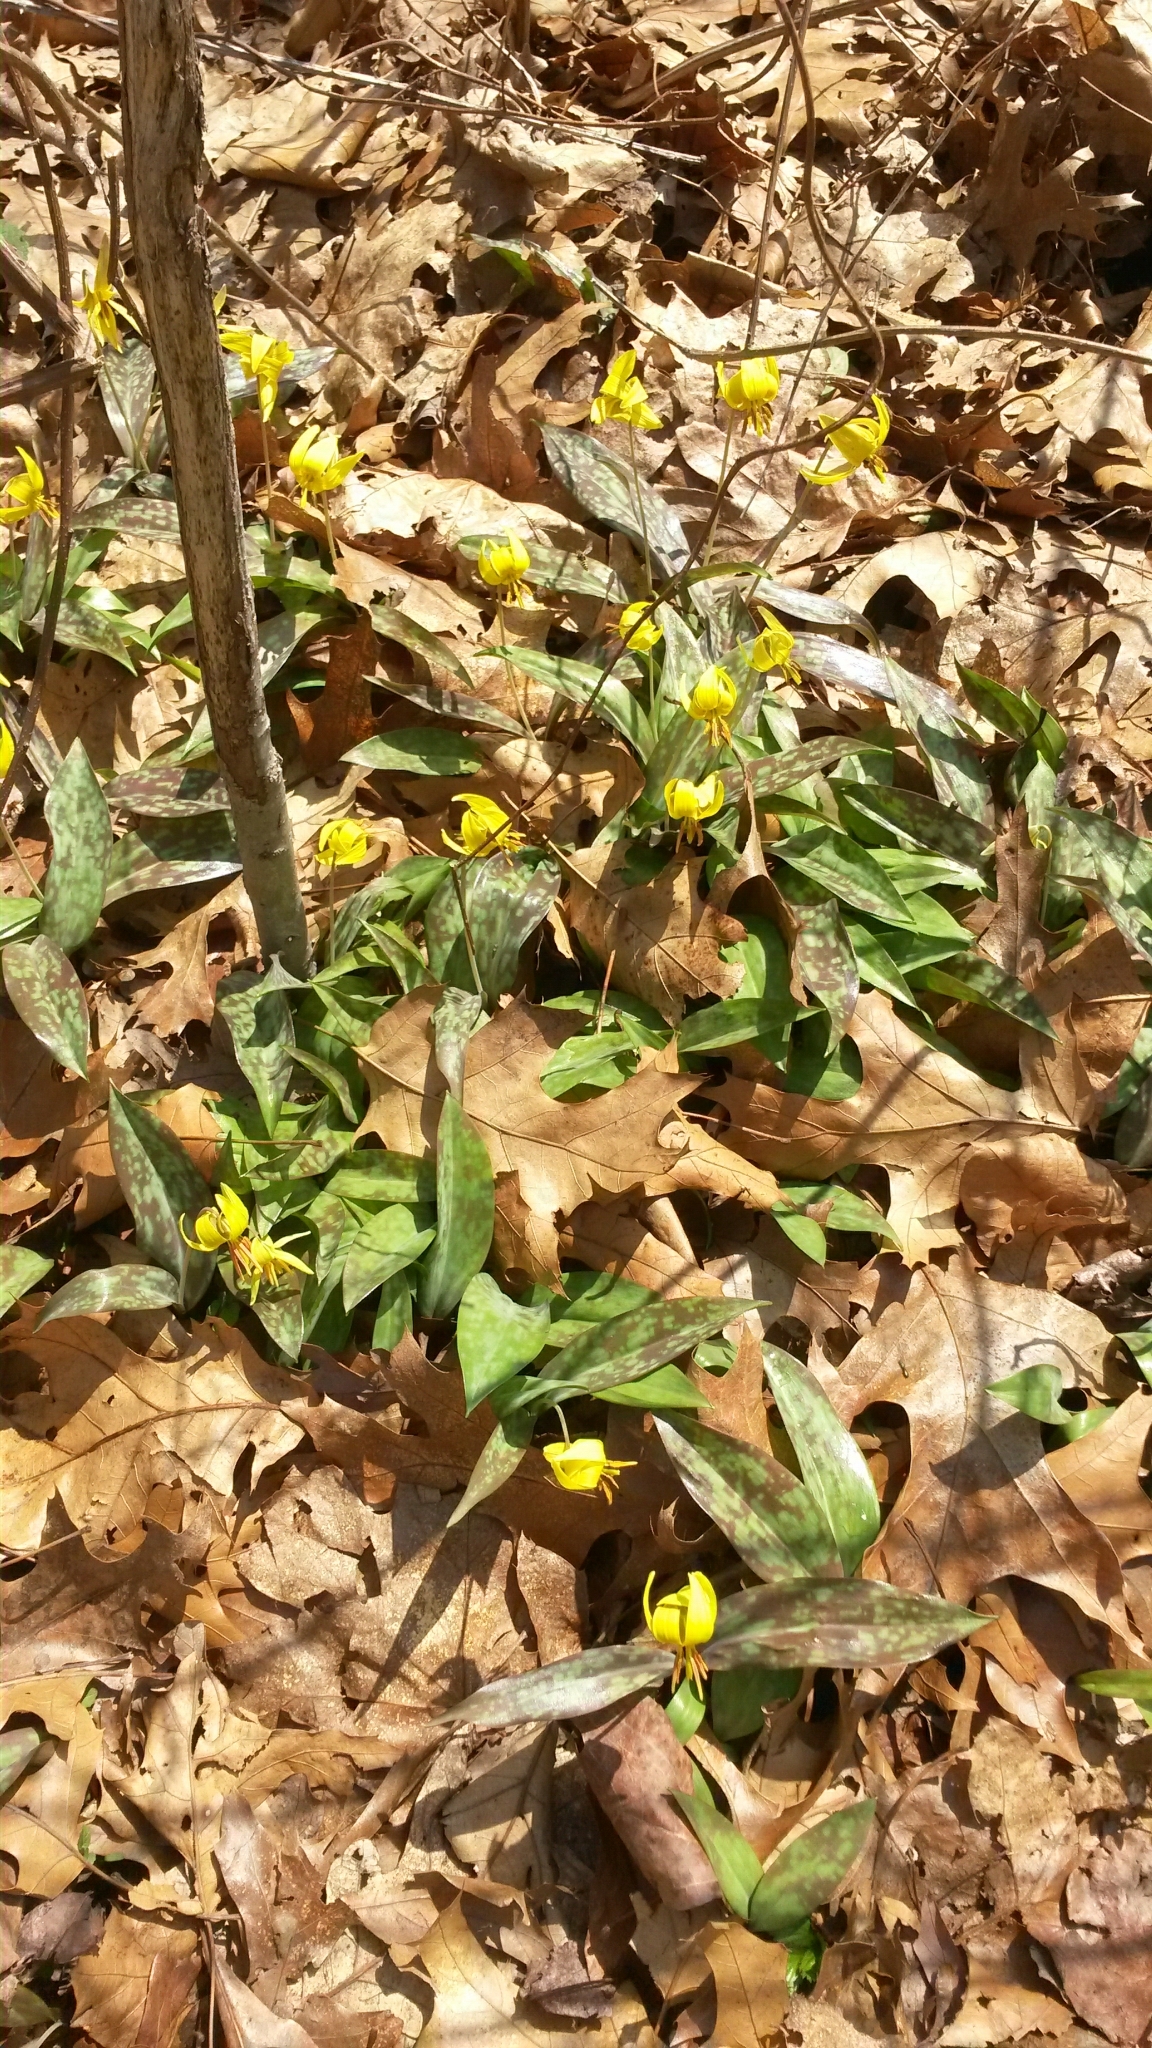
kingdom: Plantae
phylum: Tracheophyta
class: Liliopsida
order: Liliales
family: Liliaceae
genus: Erythronium
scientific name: Erythronium americanum
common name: Yellow adder's-tongue
